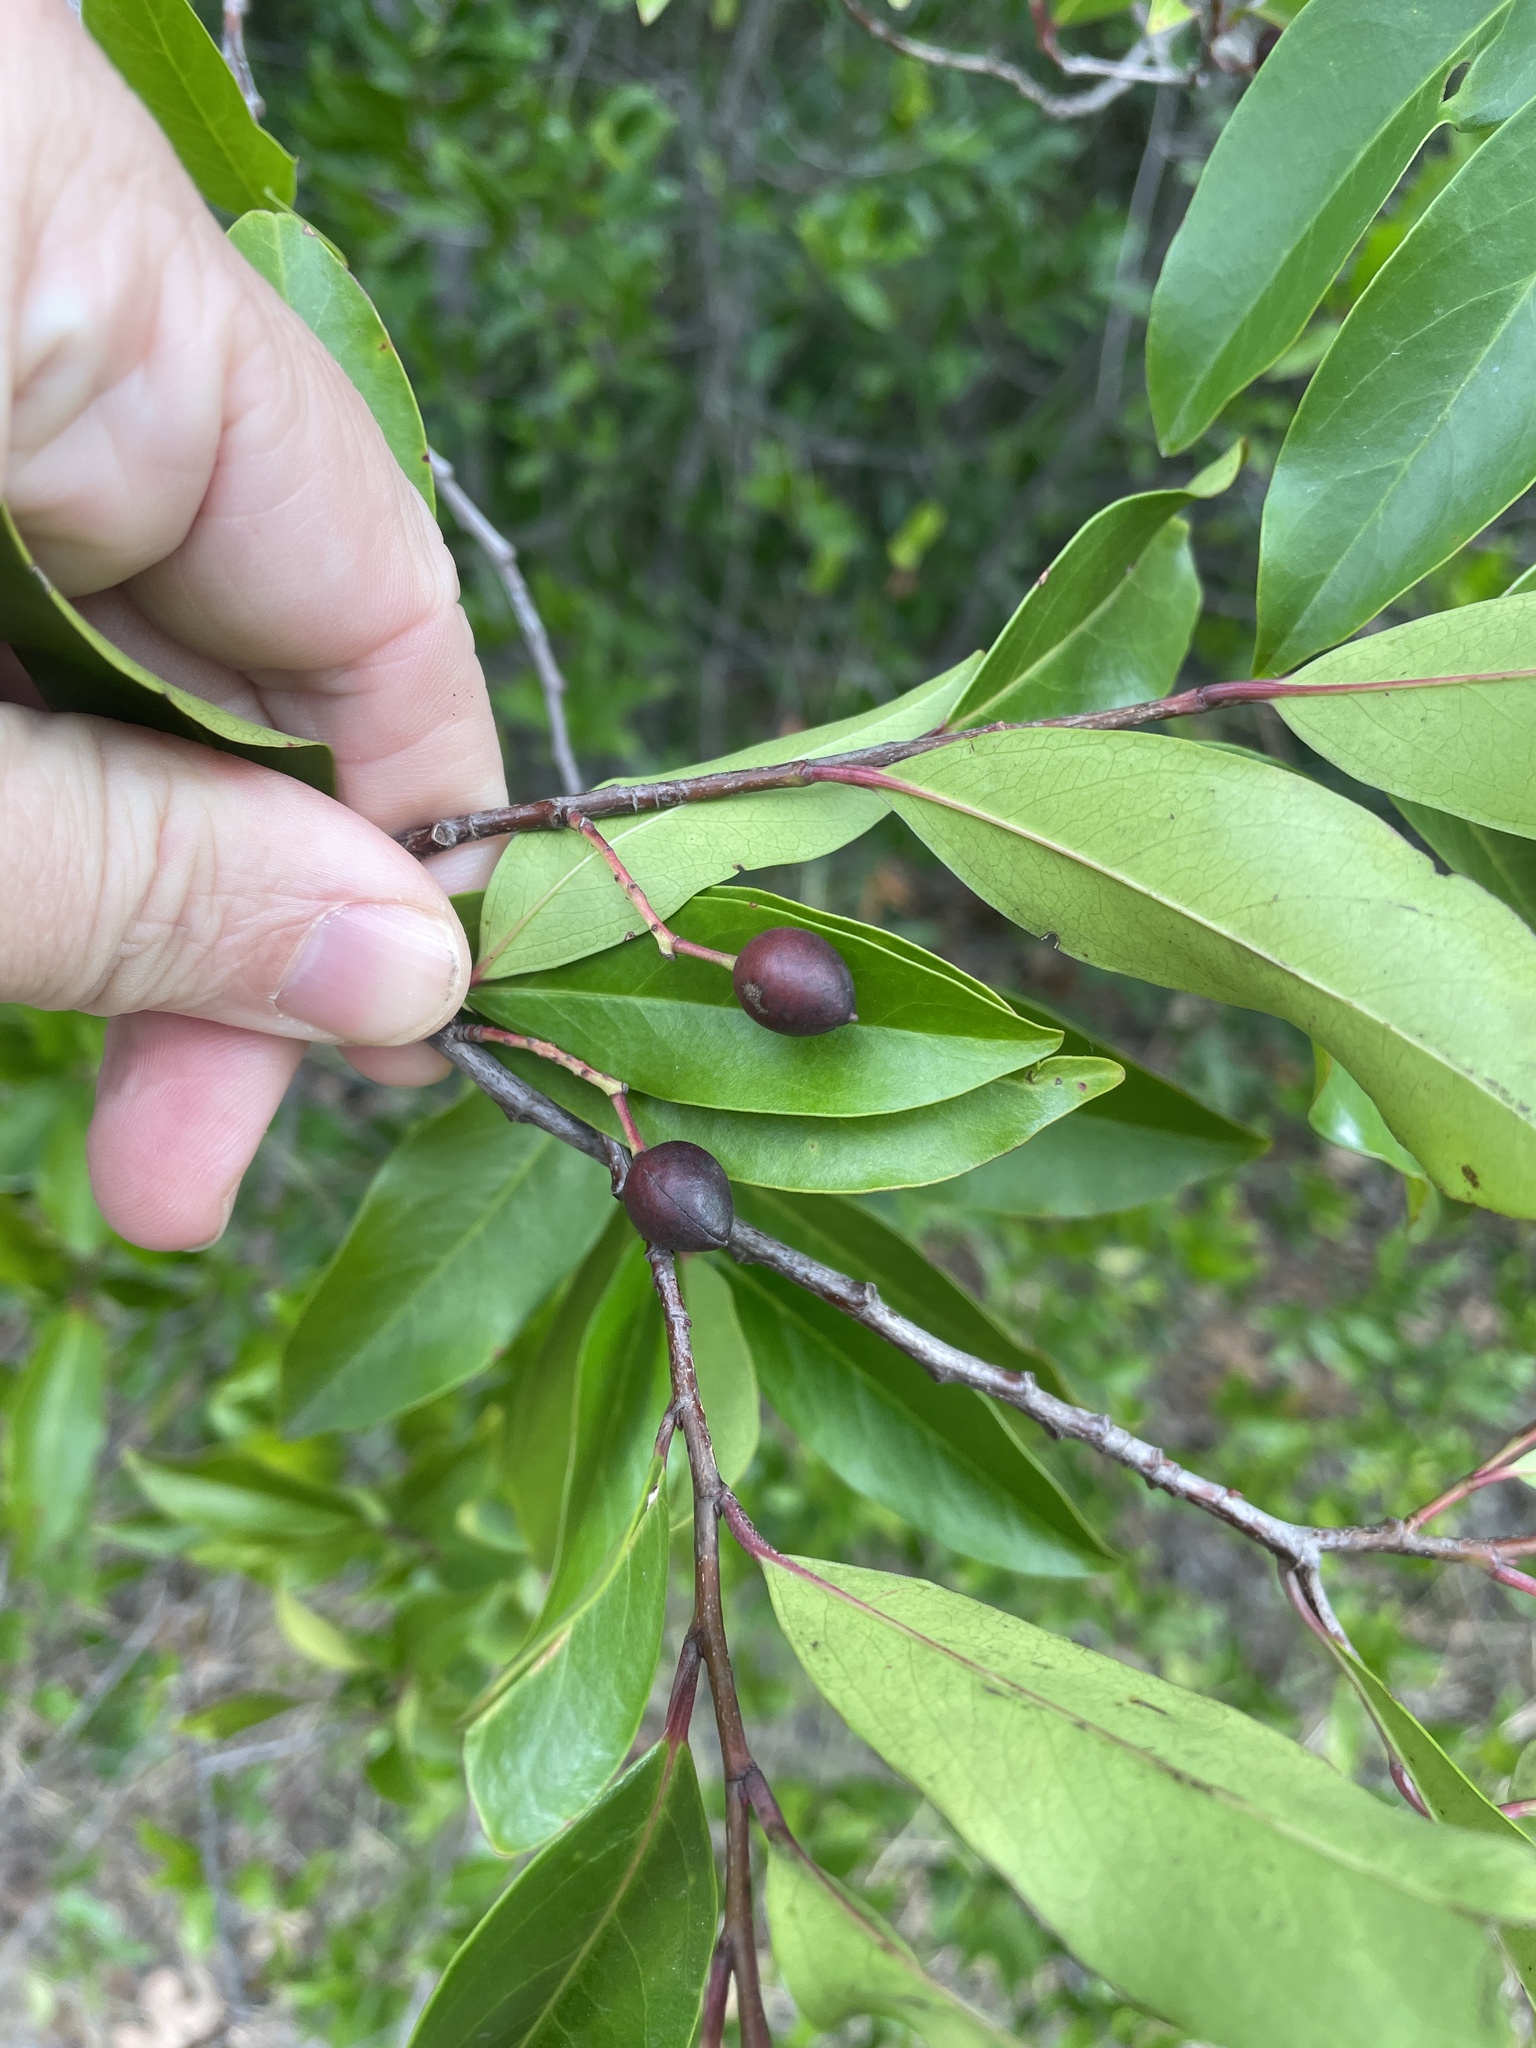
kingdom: Plantae
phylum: Tracheophyta
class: Magnoliopsida
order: Rosales
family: Rosaceae
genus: Prunus
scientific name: Prunus caroliniana
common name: Carolina laurel cherry
